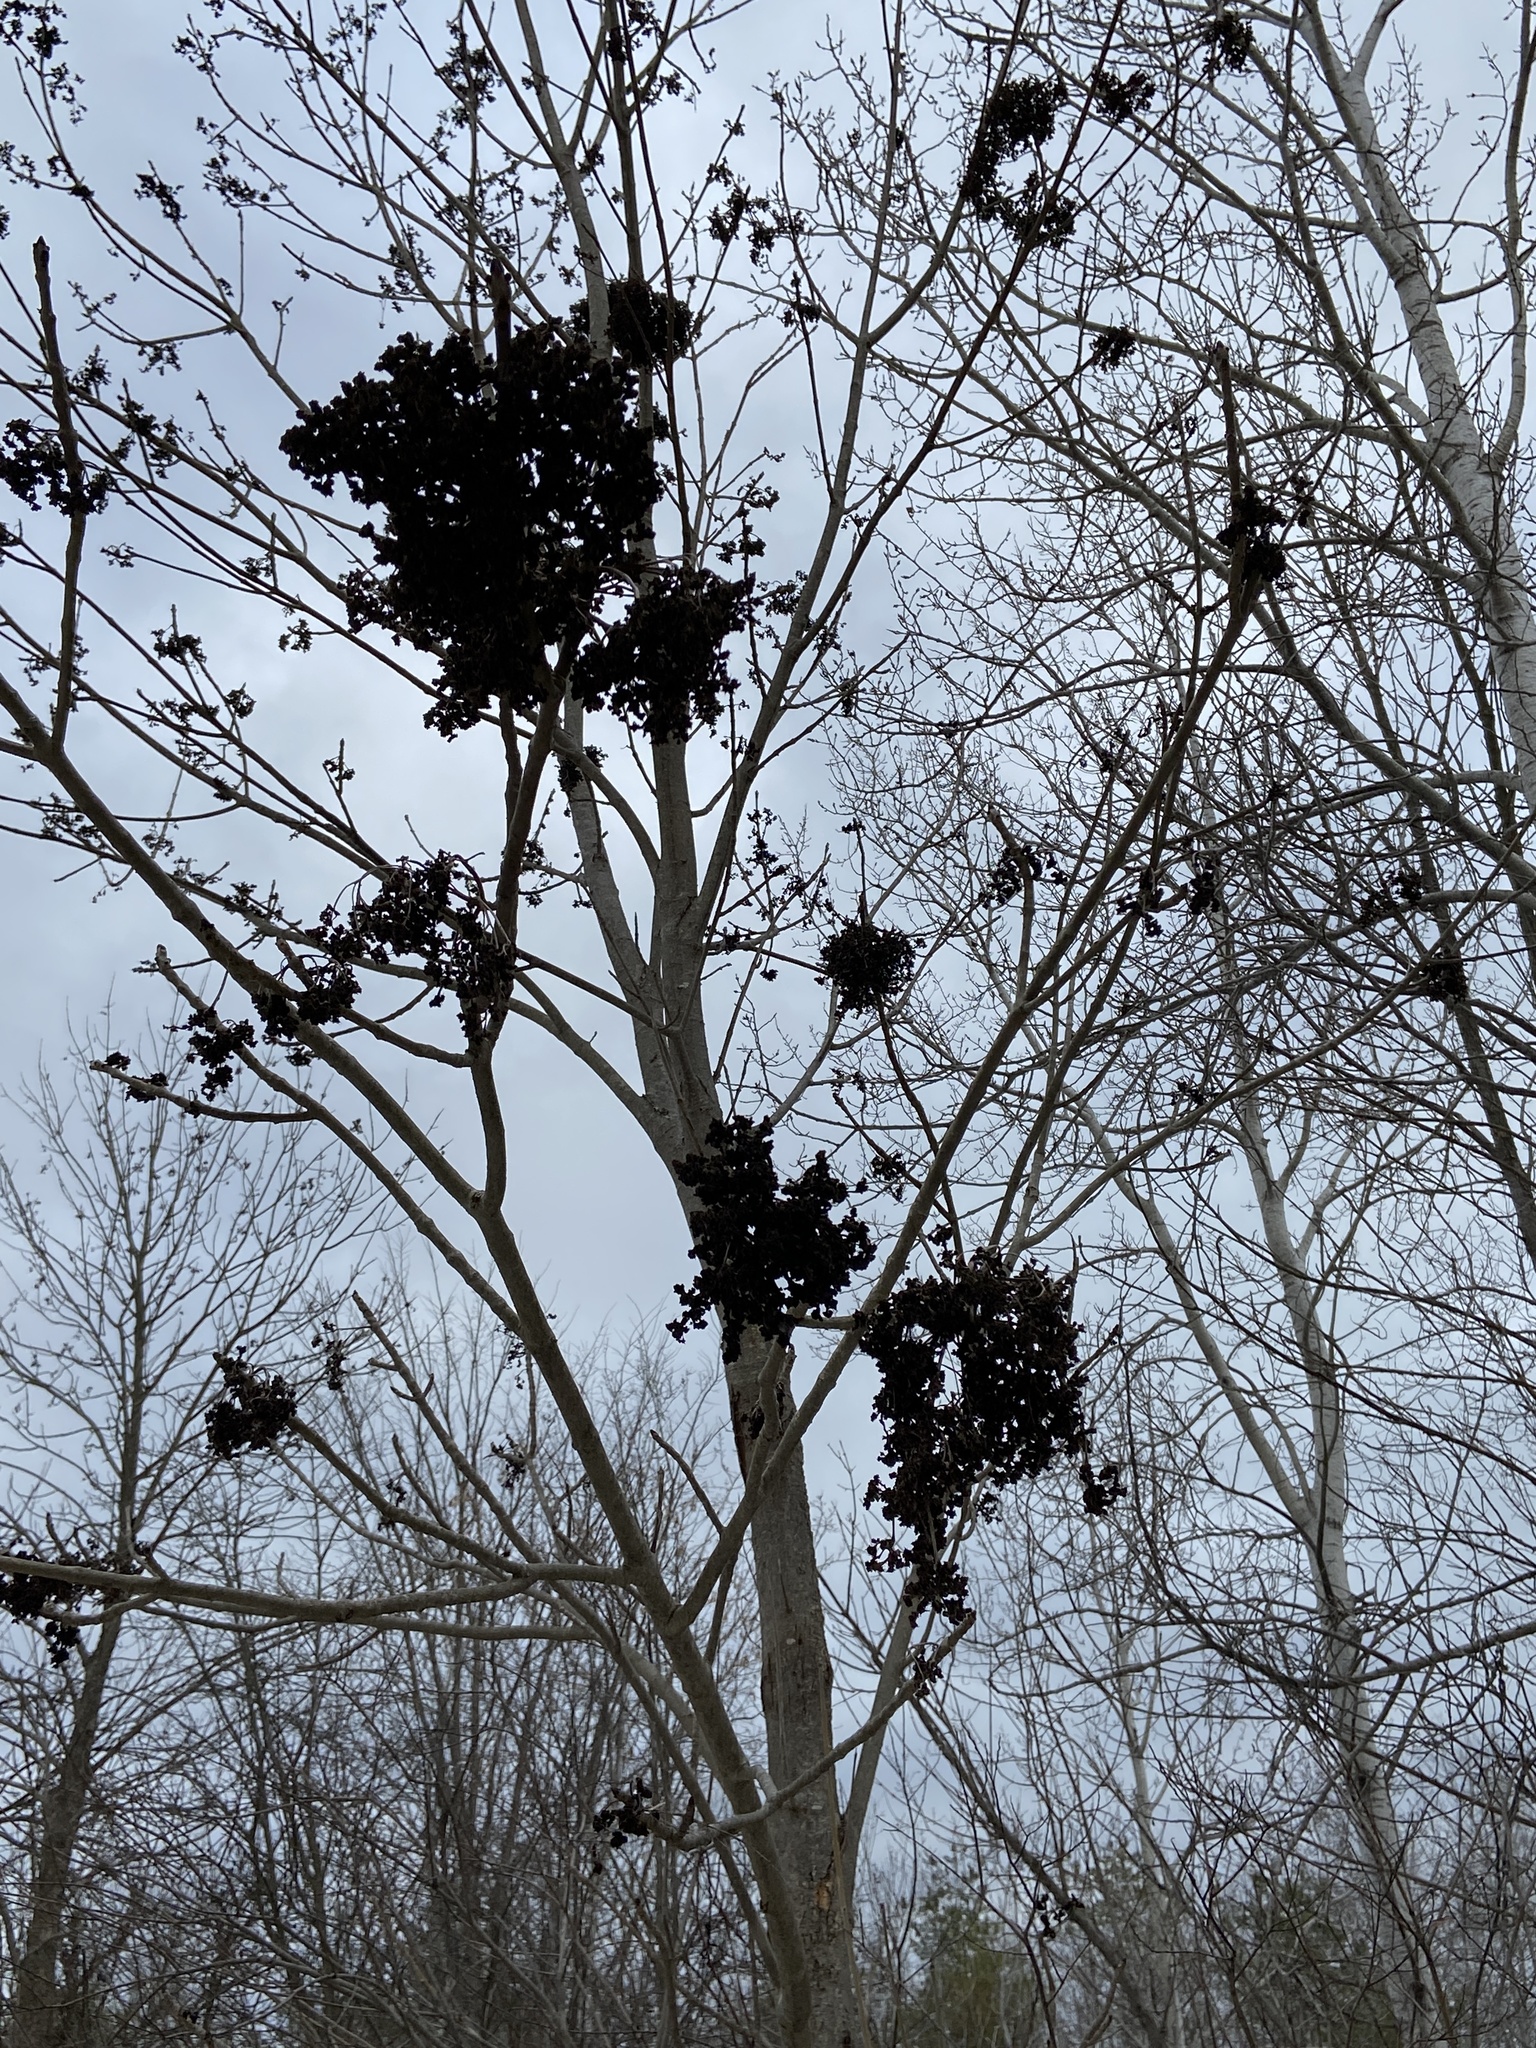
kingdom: Plantae
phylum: Tracheophyta
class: Magnoliopsida
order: Lamiales
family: Oleaceae
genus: Fraxinus
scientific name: Fraxinus nigra
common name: Black ash
